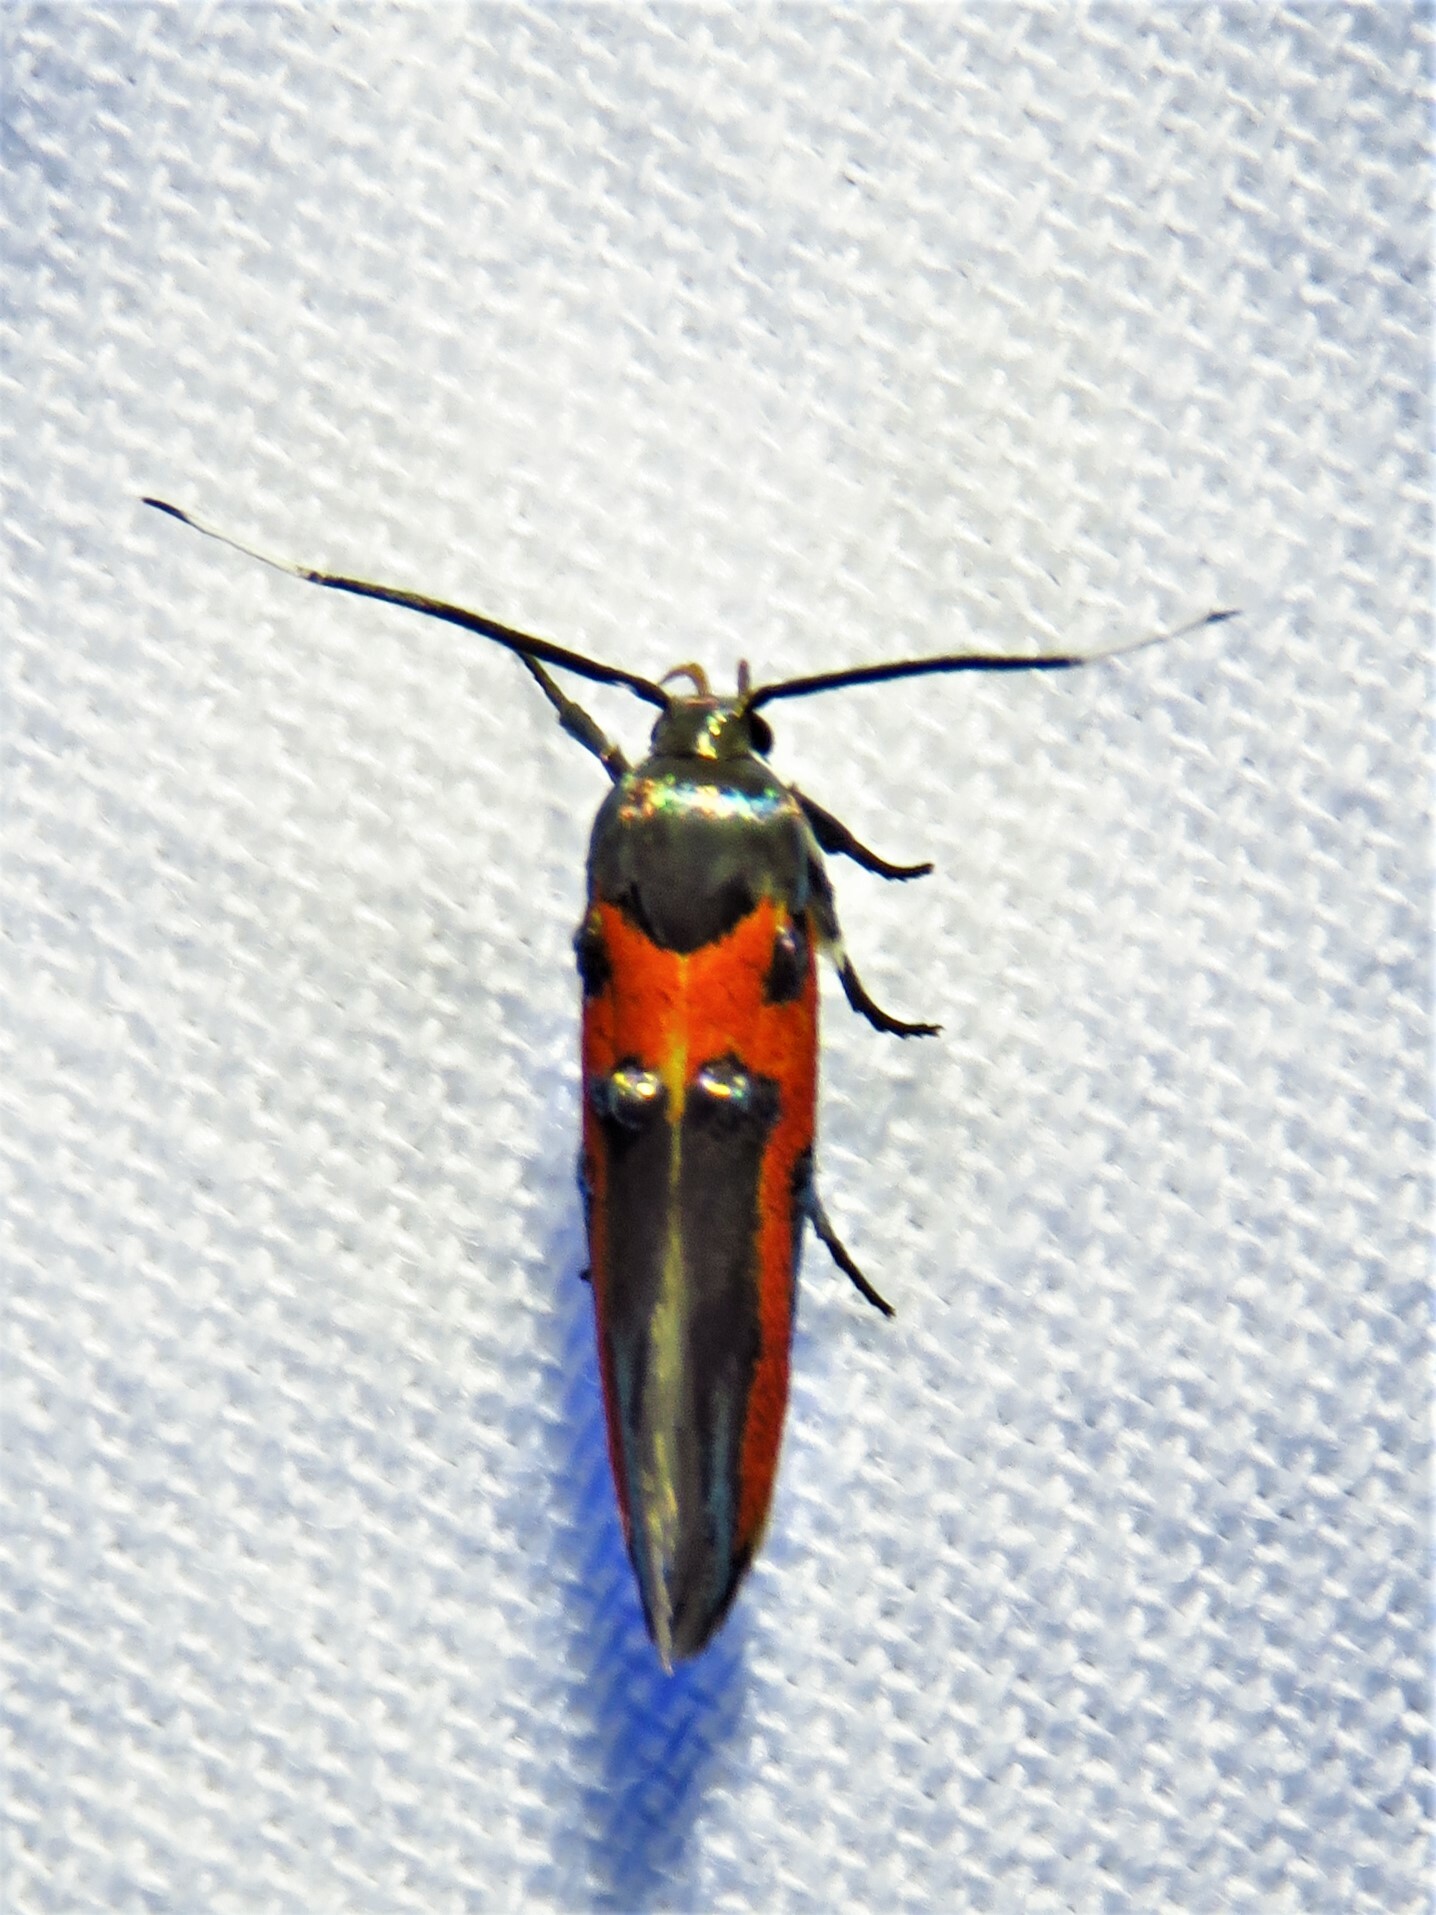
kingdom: Animalia
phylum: Arthropoda
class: Insecta
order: Lepidoptera
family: Cosmopterigidae
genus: Euclemensia
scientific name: Euclemensia bassettella
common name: Kermes scale moth
